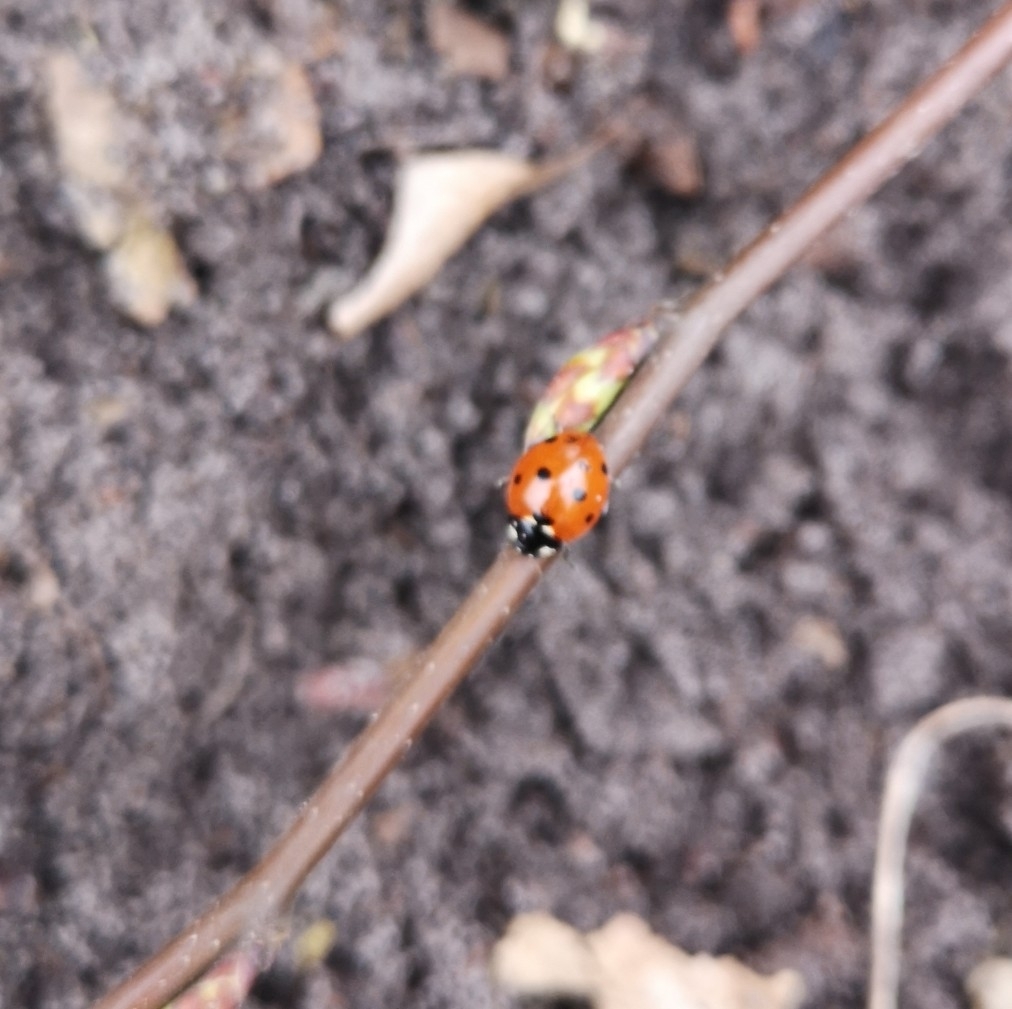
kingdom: Animalia
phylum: Arthropoda
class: Insecta
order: Coleoptera
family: Coccinellidae
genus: Coccinella
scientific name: Coccinella septempunctata
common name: Sevenspotted lady beetle
